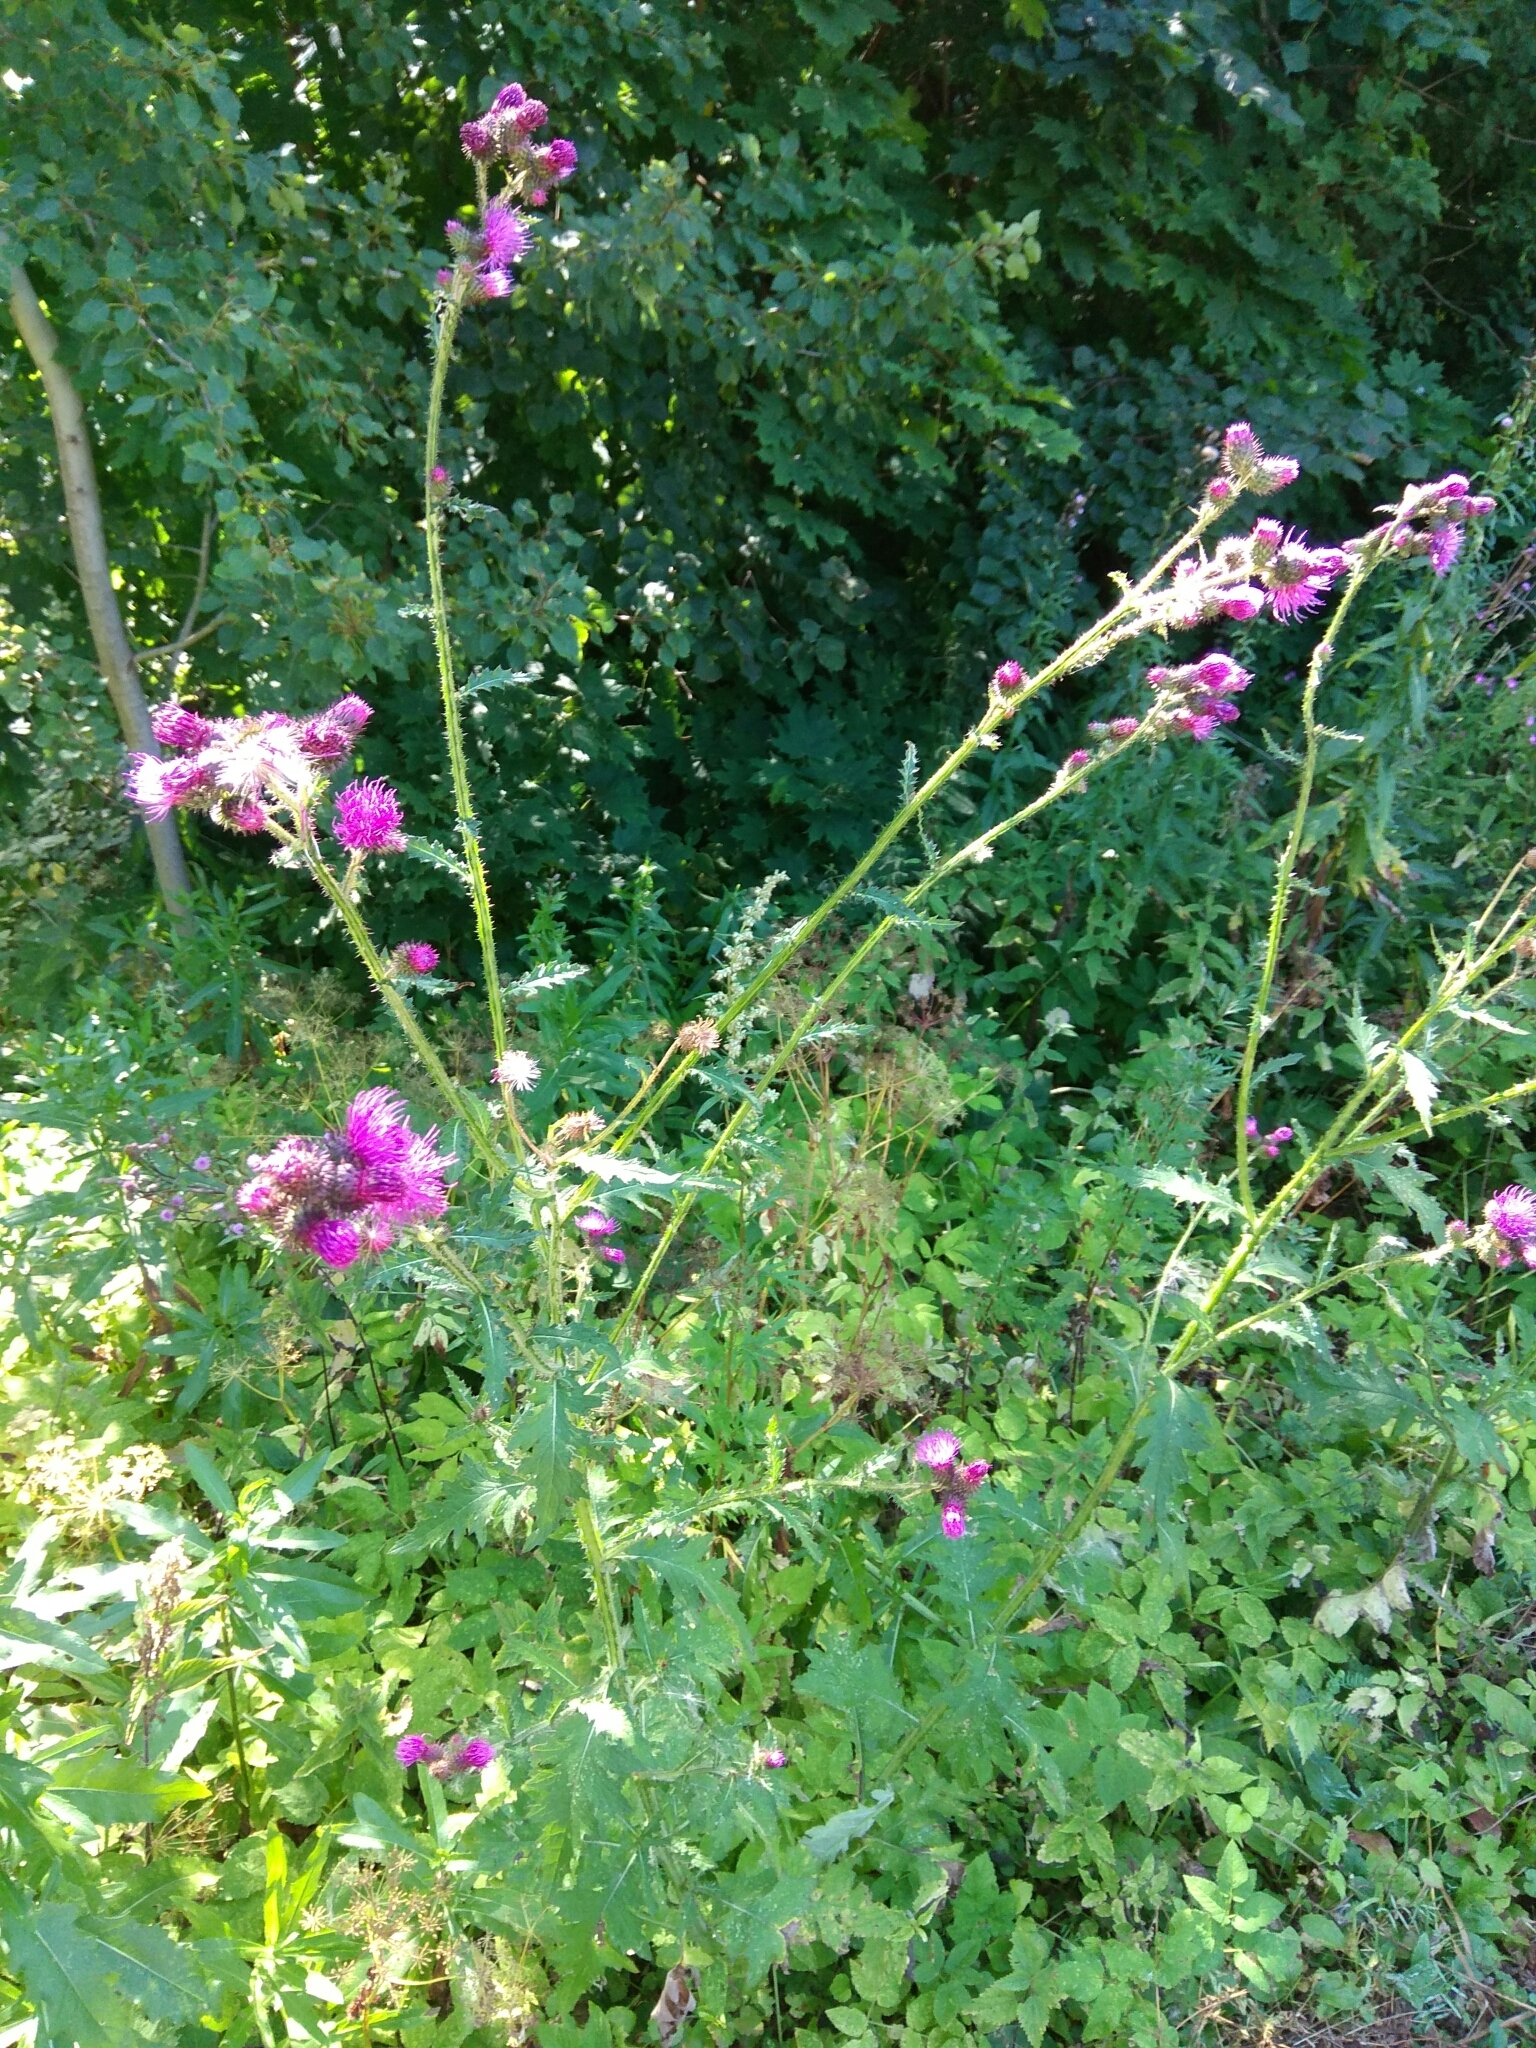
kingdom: Plantae
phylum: Tracheophyta
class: Magnoliopsida
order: Asterales
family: Asteraceae
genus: Carduus
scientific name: Carduus crispus
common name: Welted thistle
